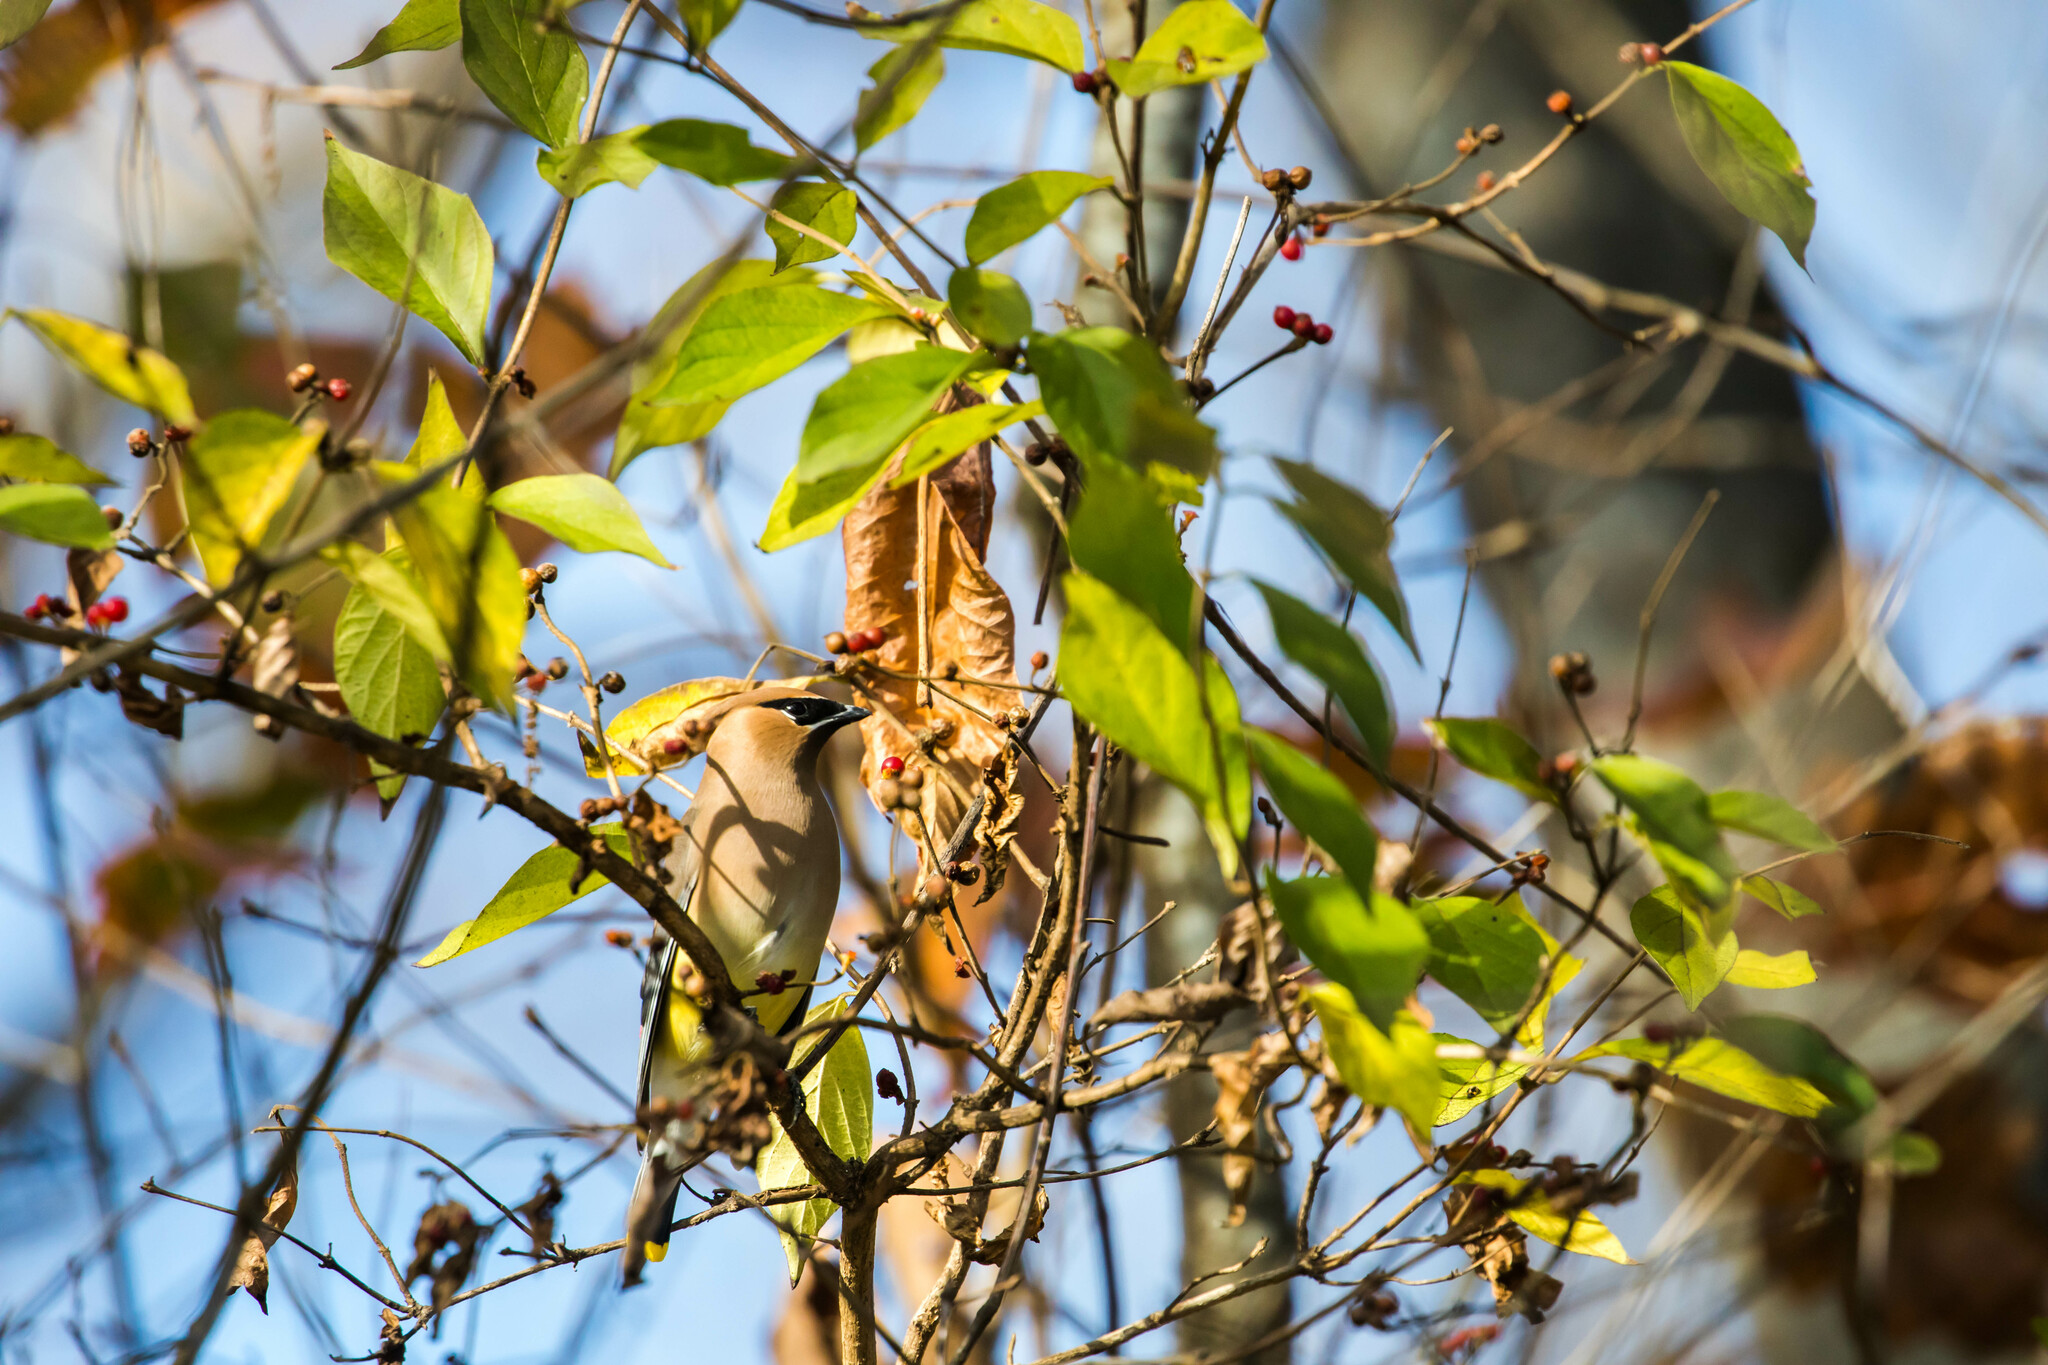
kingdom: Animalia
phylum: Chordata
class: Aves
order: Passeriformes
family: Bombycillidae
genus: Bombycilla
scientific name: Bombycilla cedrorum
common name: Cedar waxwing
